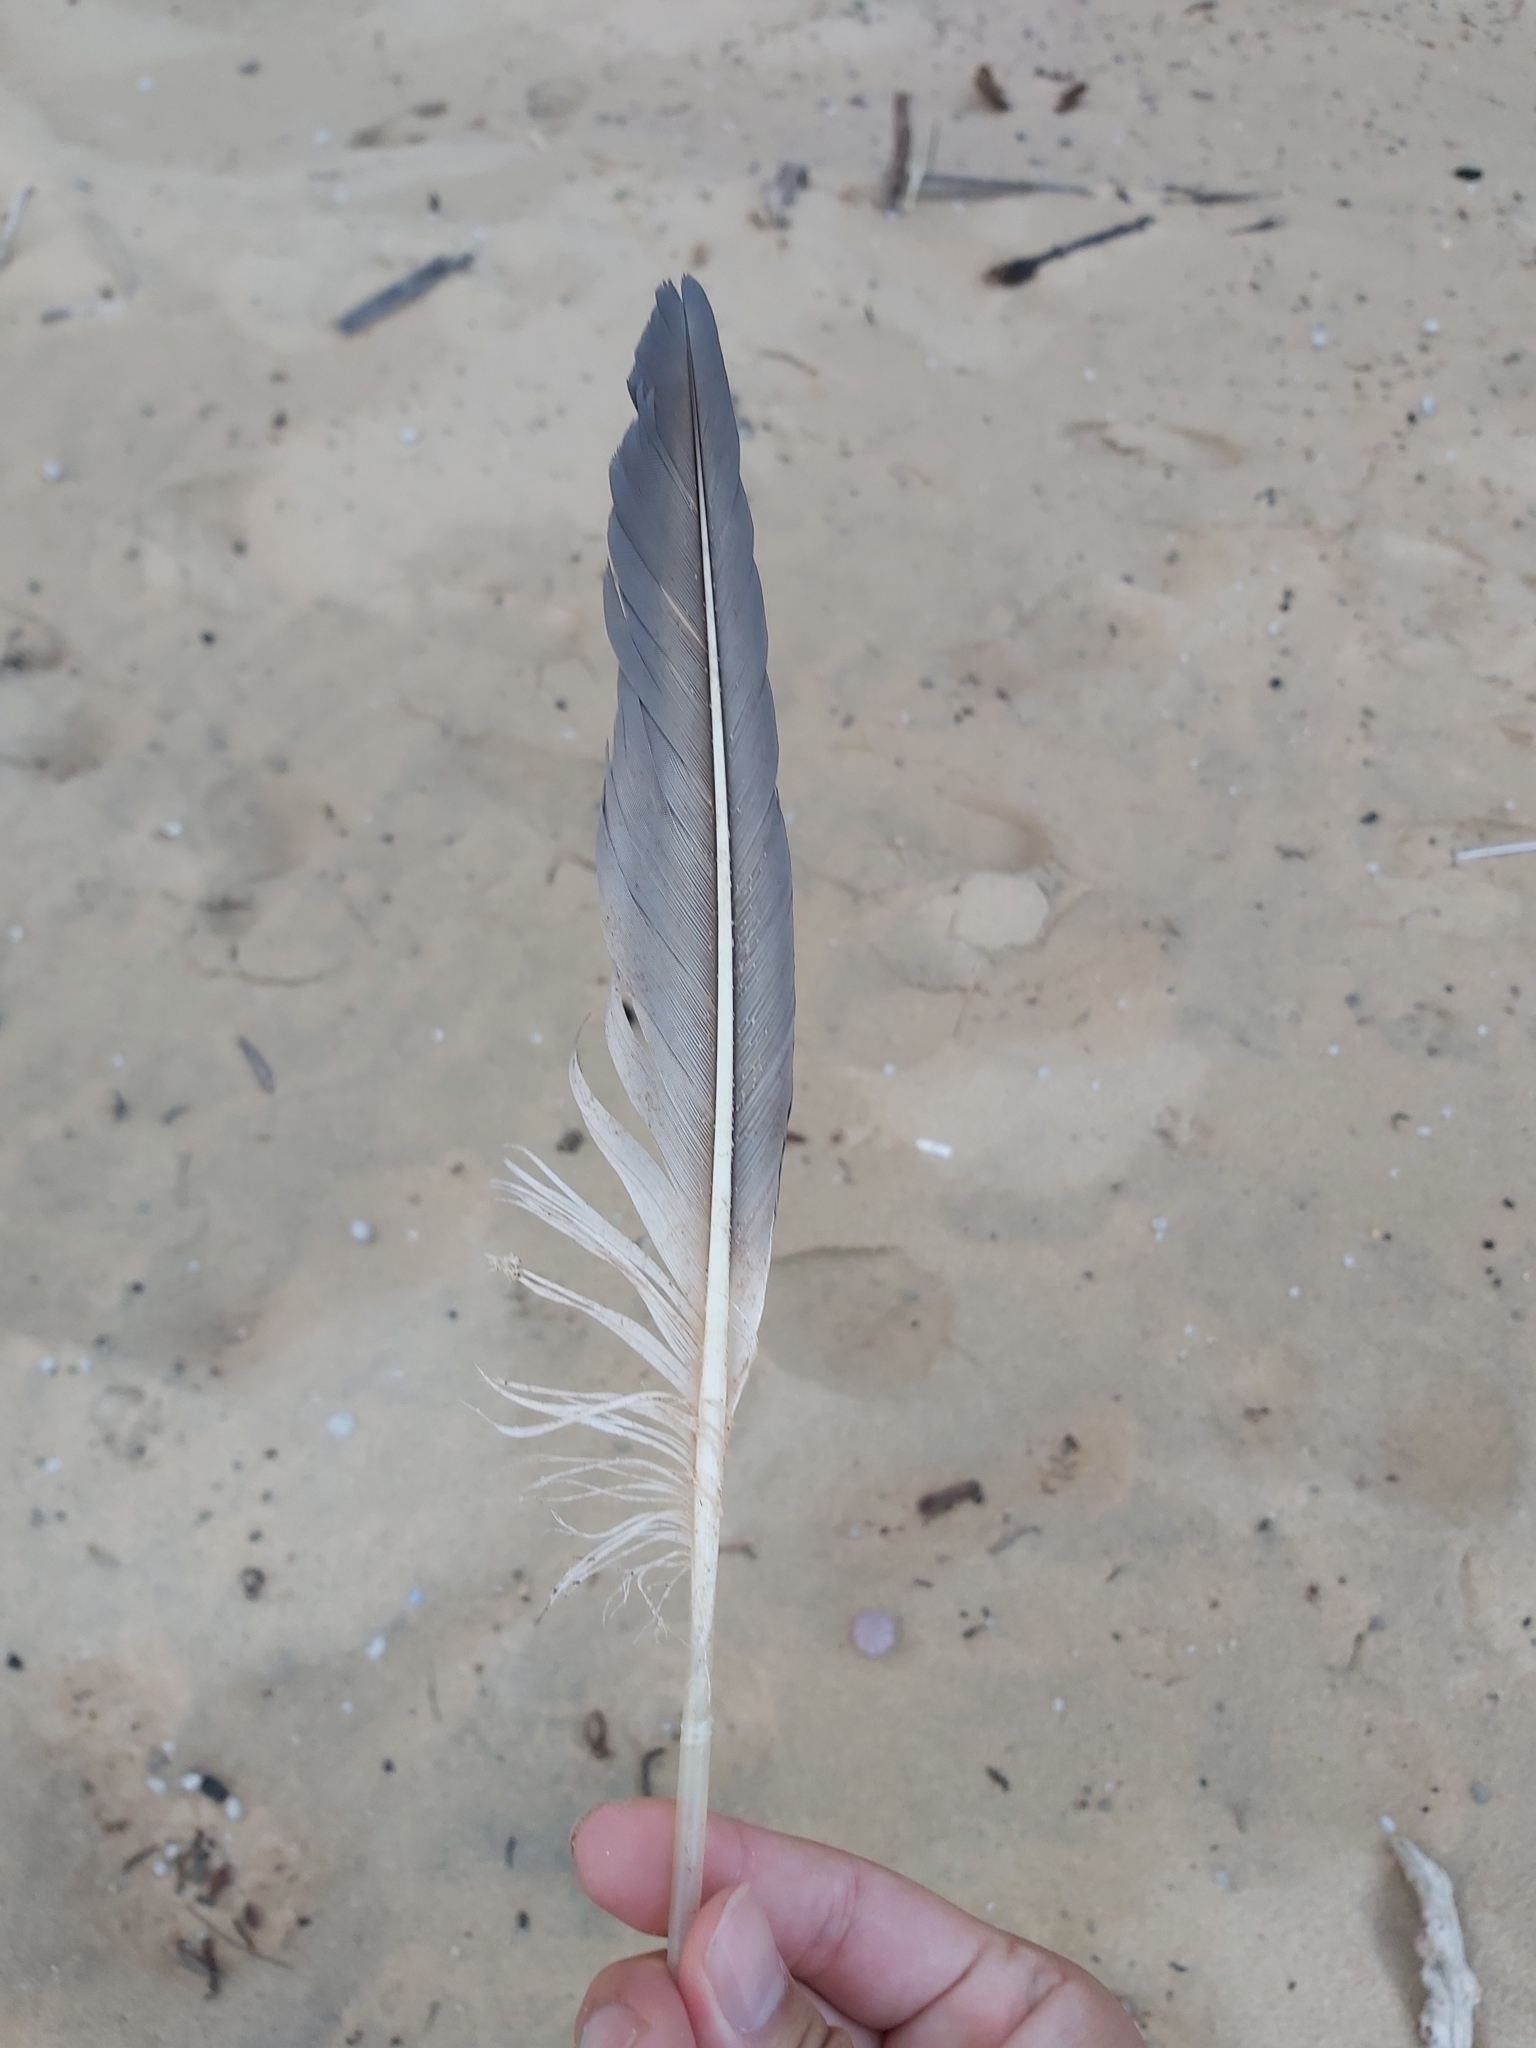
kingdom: Animalia
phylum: Chordata
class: Aves
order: Suliformes
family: Sulidae
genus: Morus
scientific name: Morus serrator
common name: Australasian gannet
